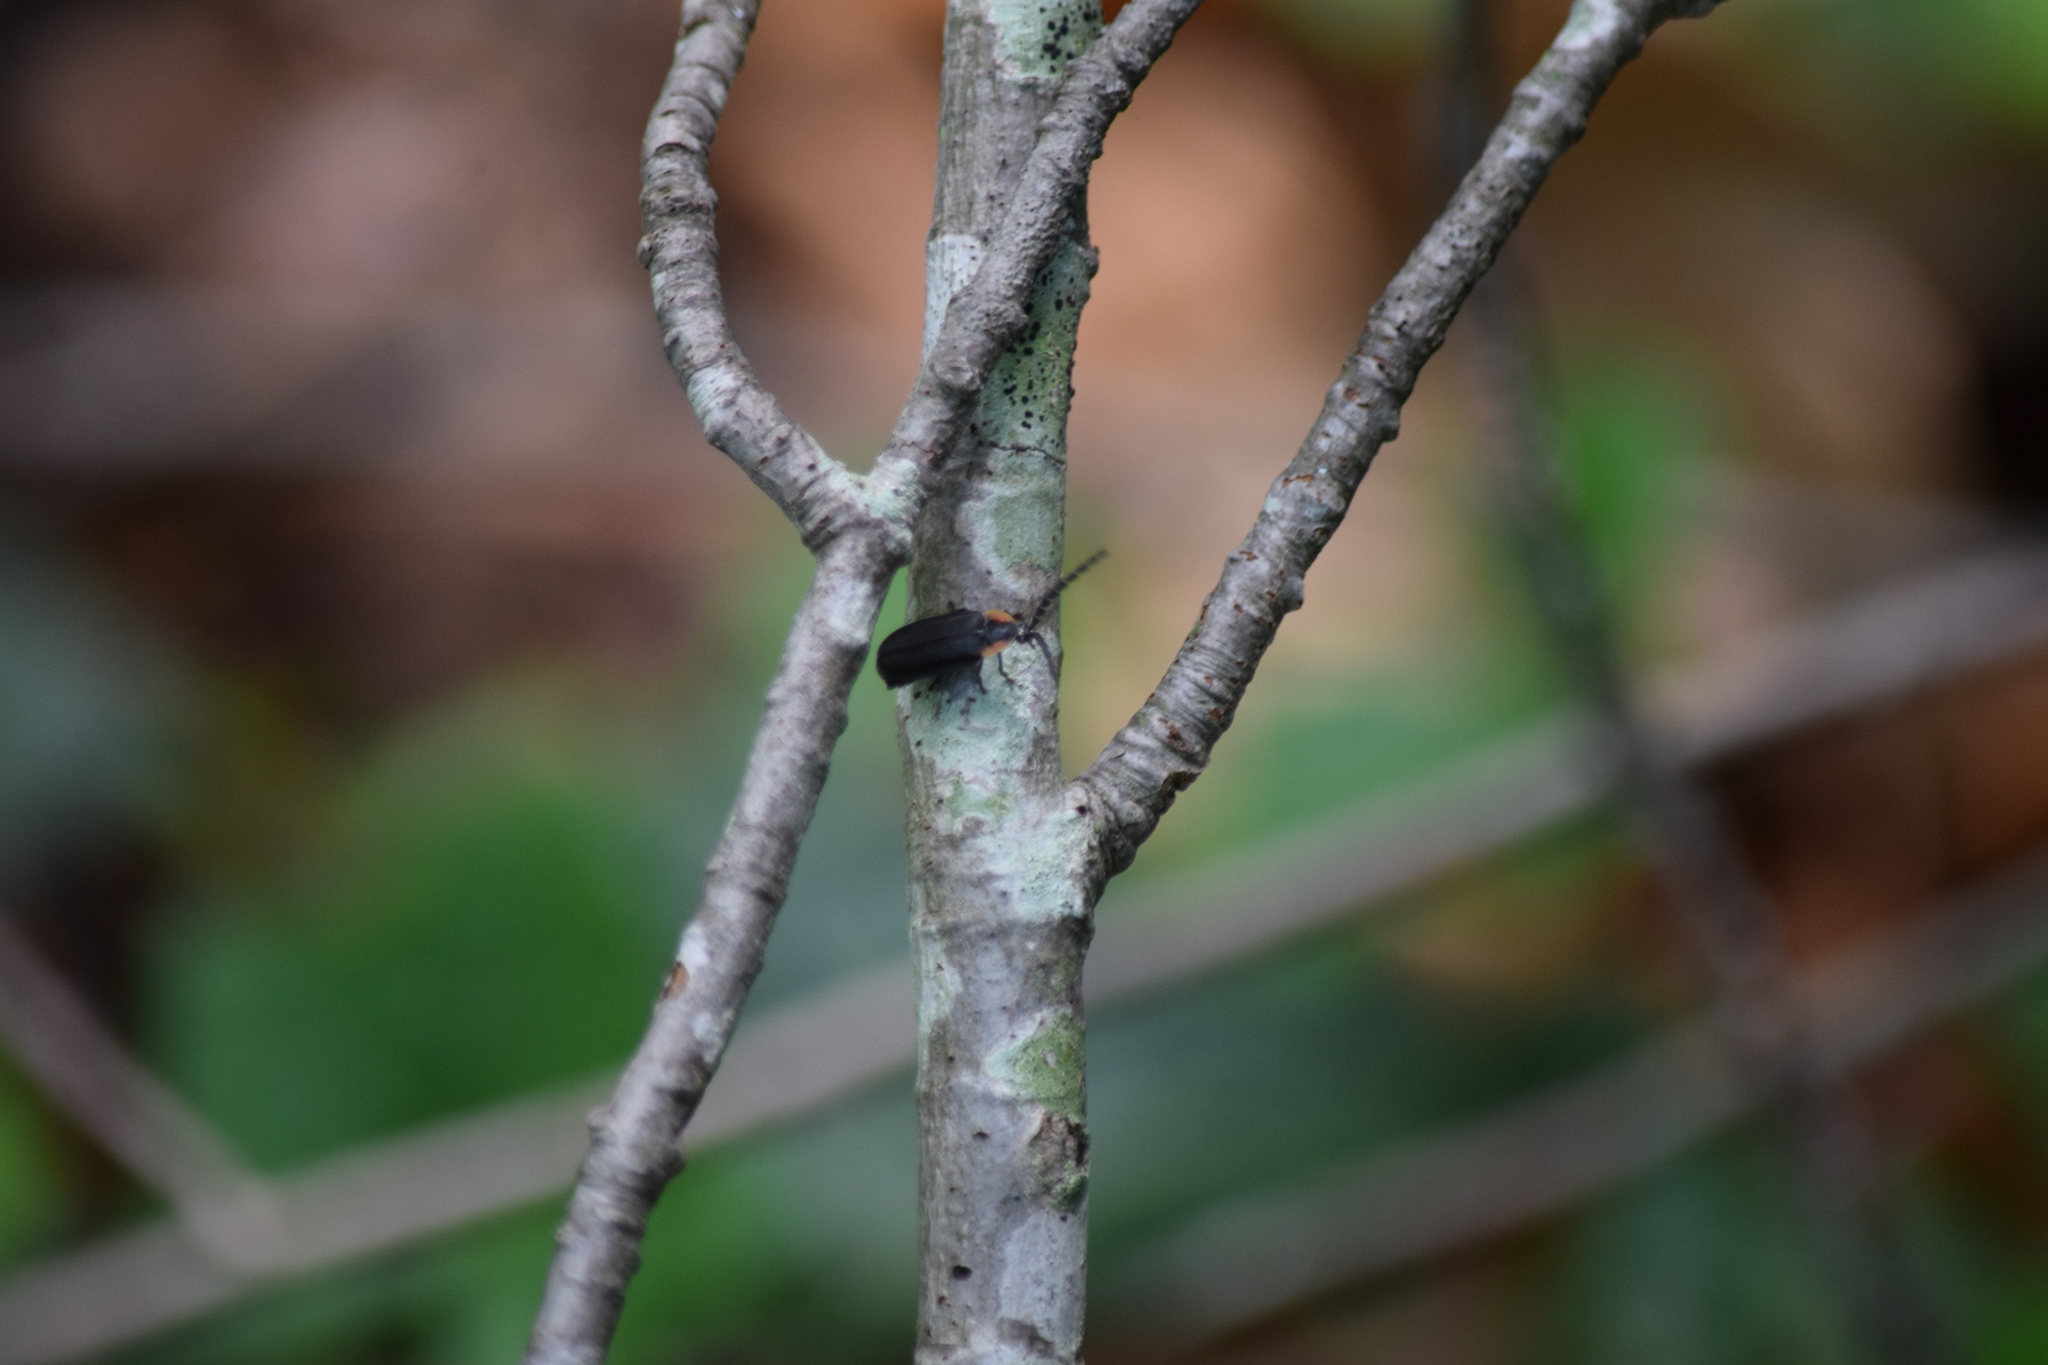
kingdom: Animalia
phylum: Arthropoda
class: Insecta
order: Coleoptera
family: Lampyridae
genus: Lucidota
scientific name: Lucidota atra
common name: Black firefly
